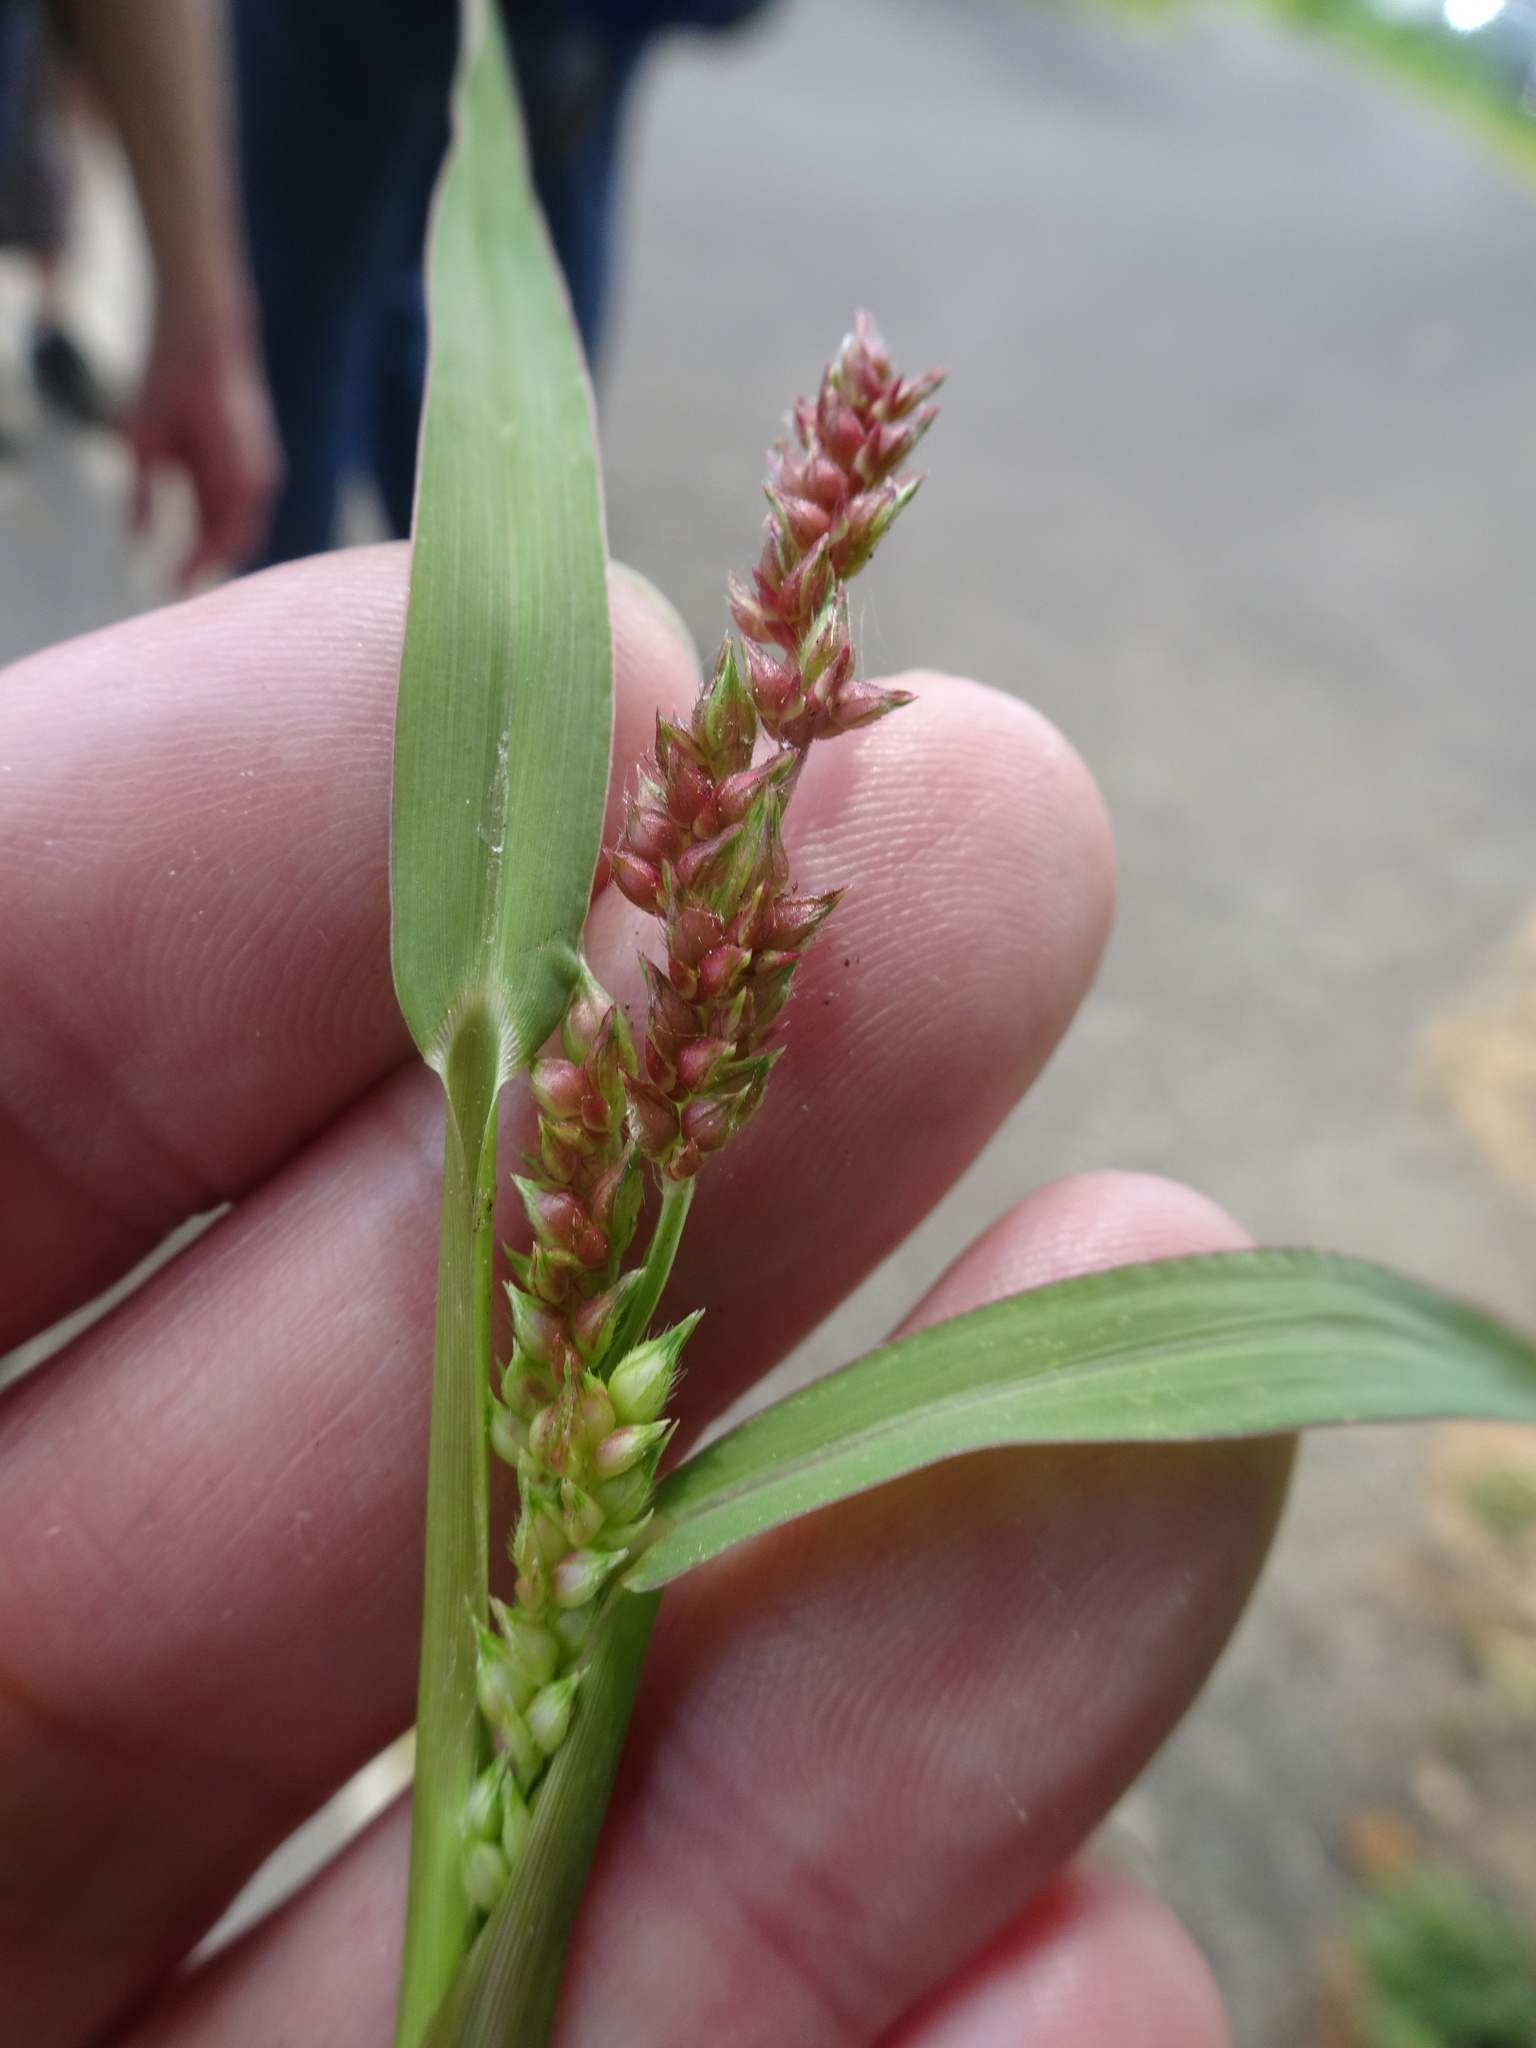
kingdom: Plantae
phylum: Tracheophyta
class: Liliopsida
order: Poales
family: Poaceae
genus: Echinochloa
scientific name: Echinochloa crus-galli
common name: Cockspur
